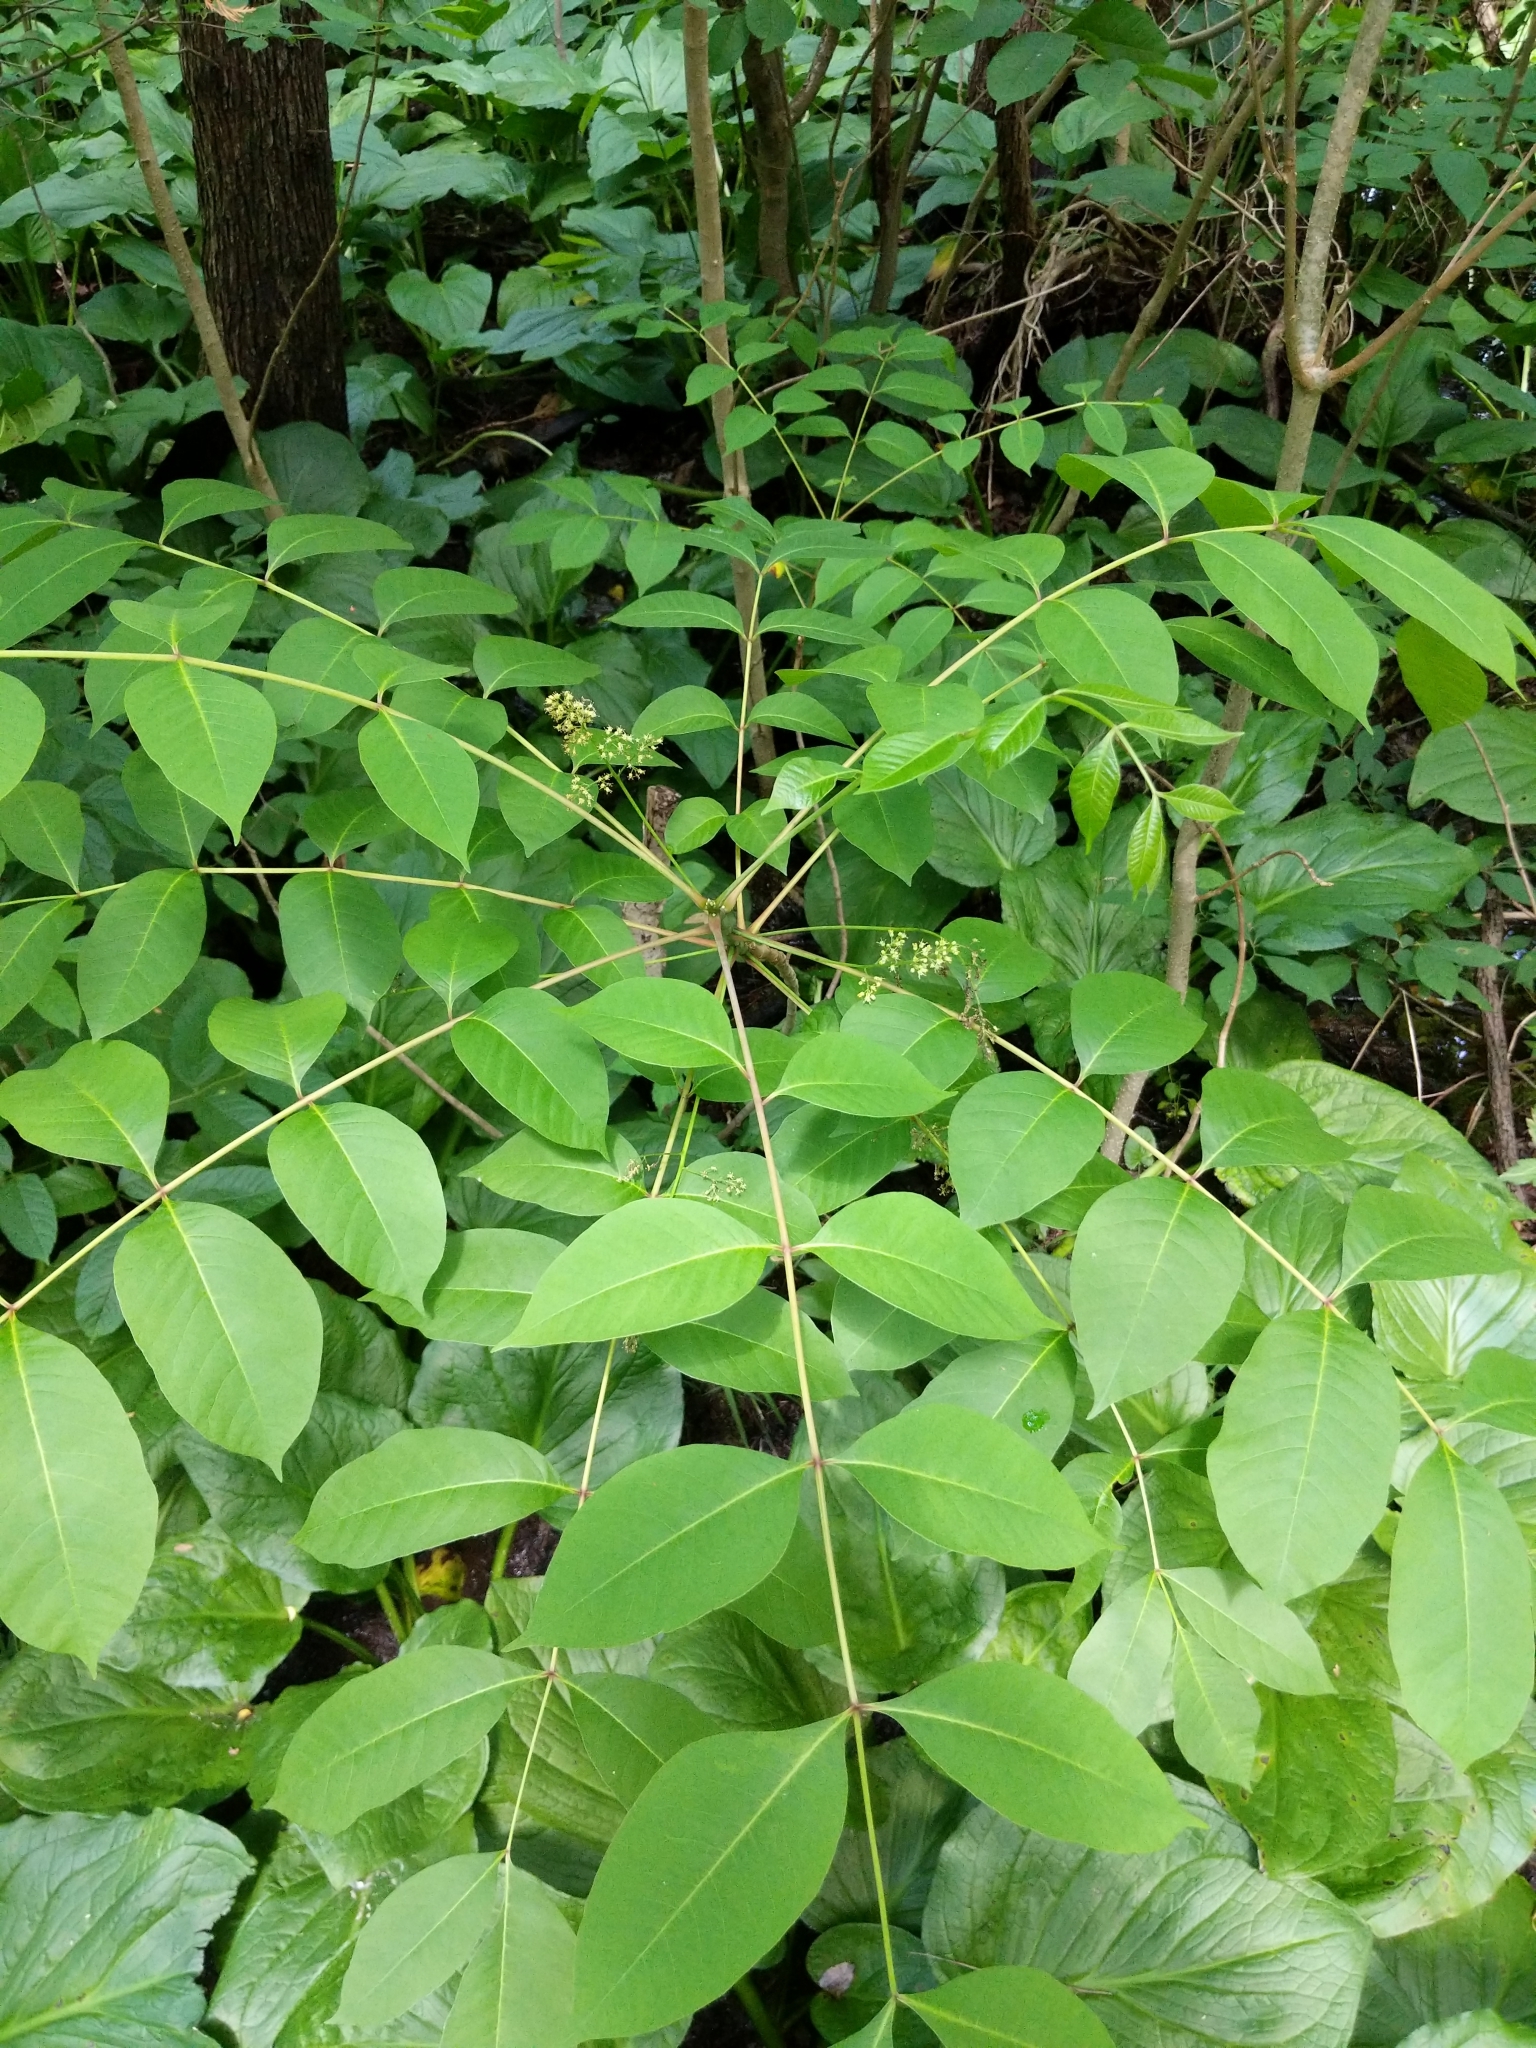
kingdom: Plantae
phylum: Tracheophyta
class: Magnoliopsida
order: Sapindales
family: Anacardiaceae
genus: Toxicodendron
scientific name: Toxicodendron vernix
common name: Poison sumac
